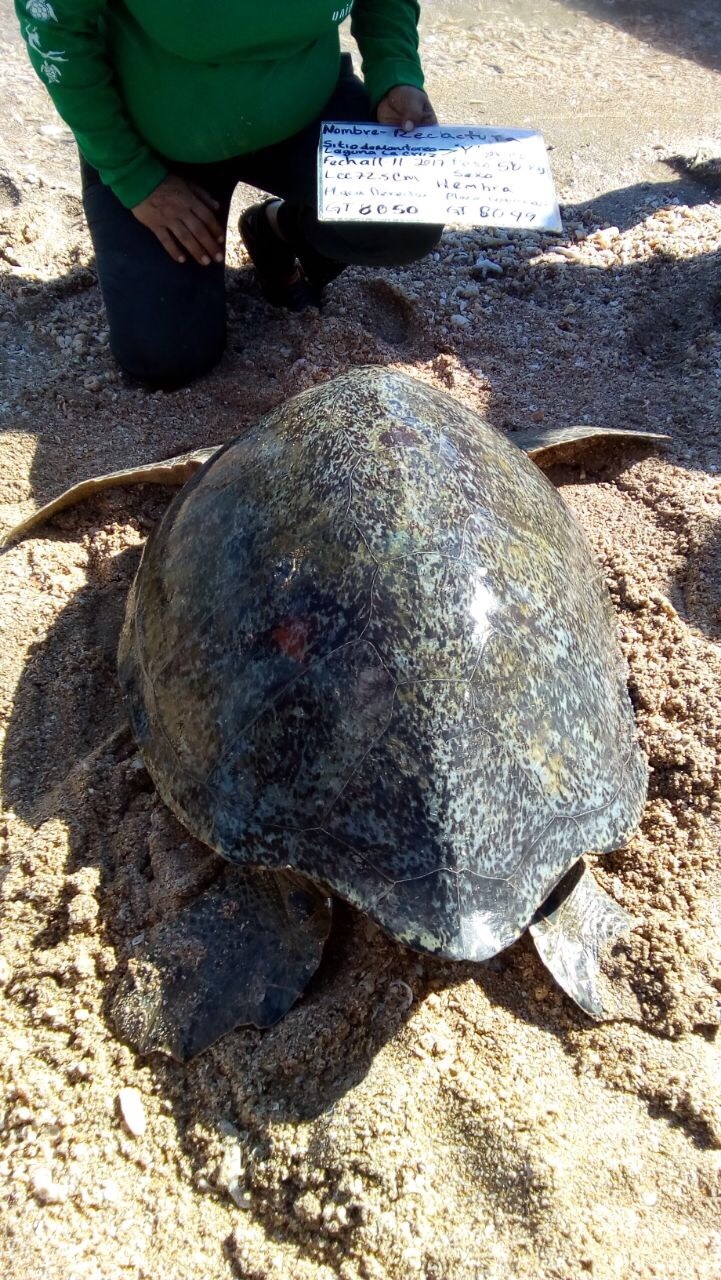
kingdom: Animalia
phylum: Chordata
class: Testudines
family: Cheloniidae
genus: Chelonia
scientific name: Chelonia mydas
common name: Green turtle
